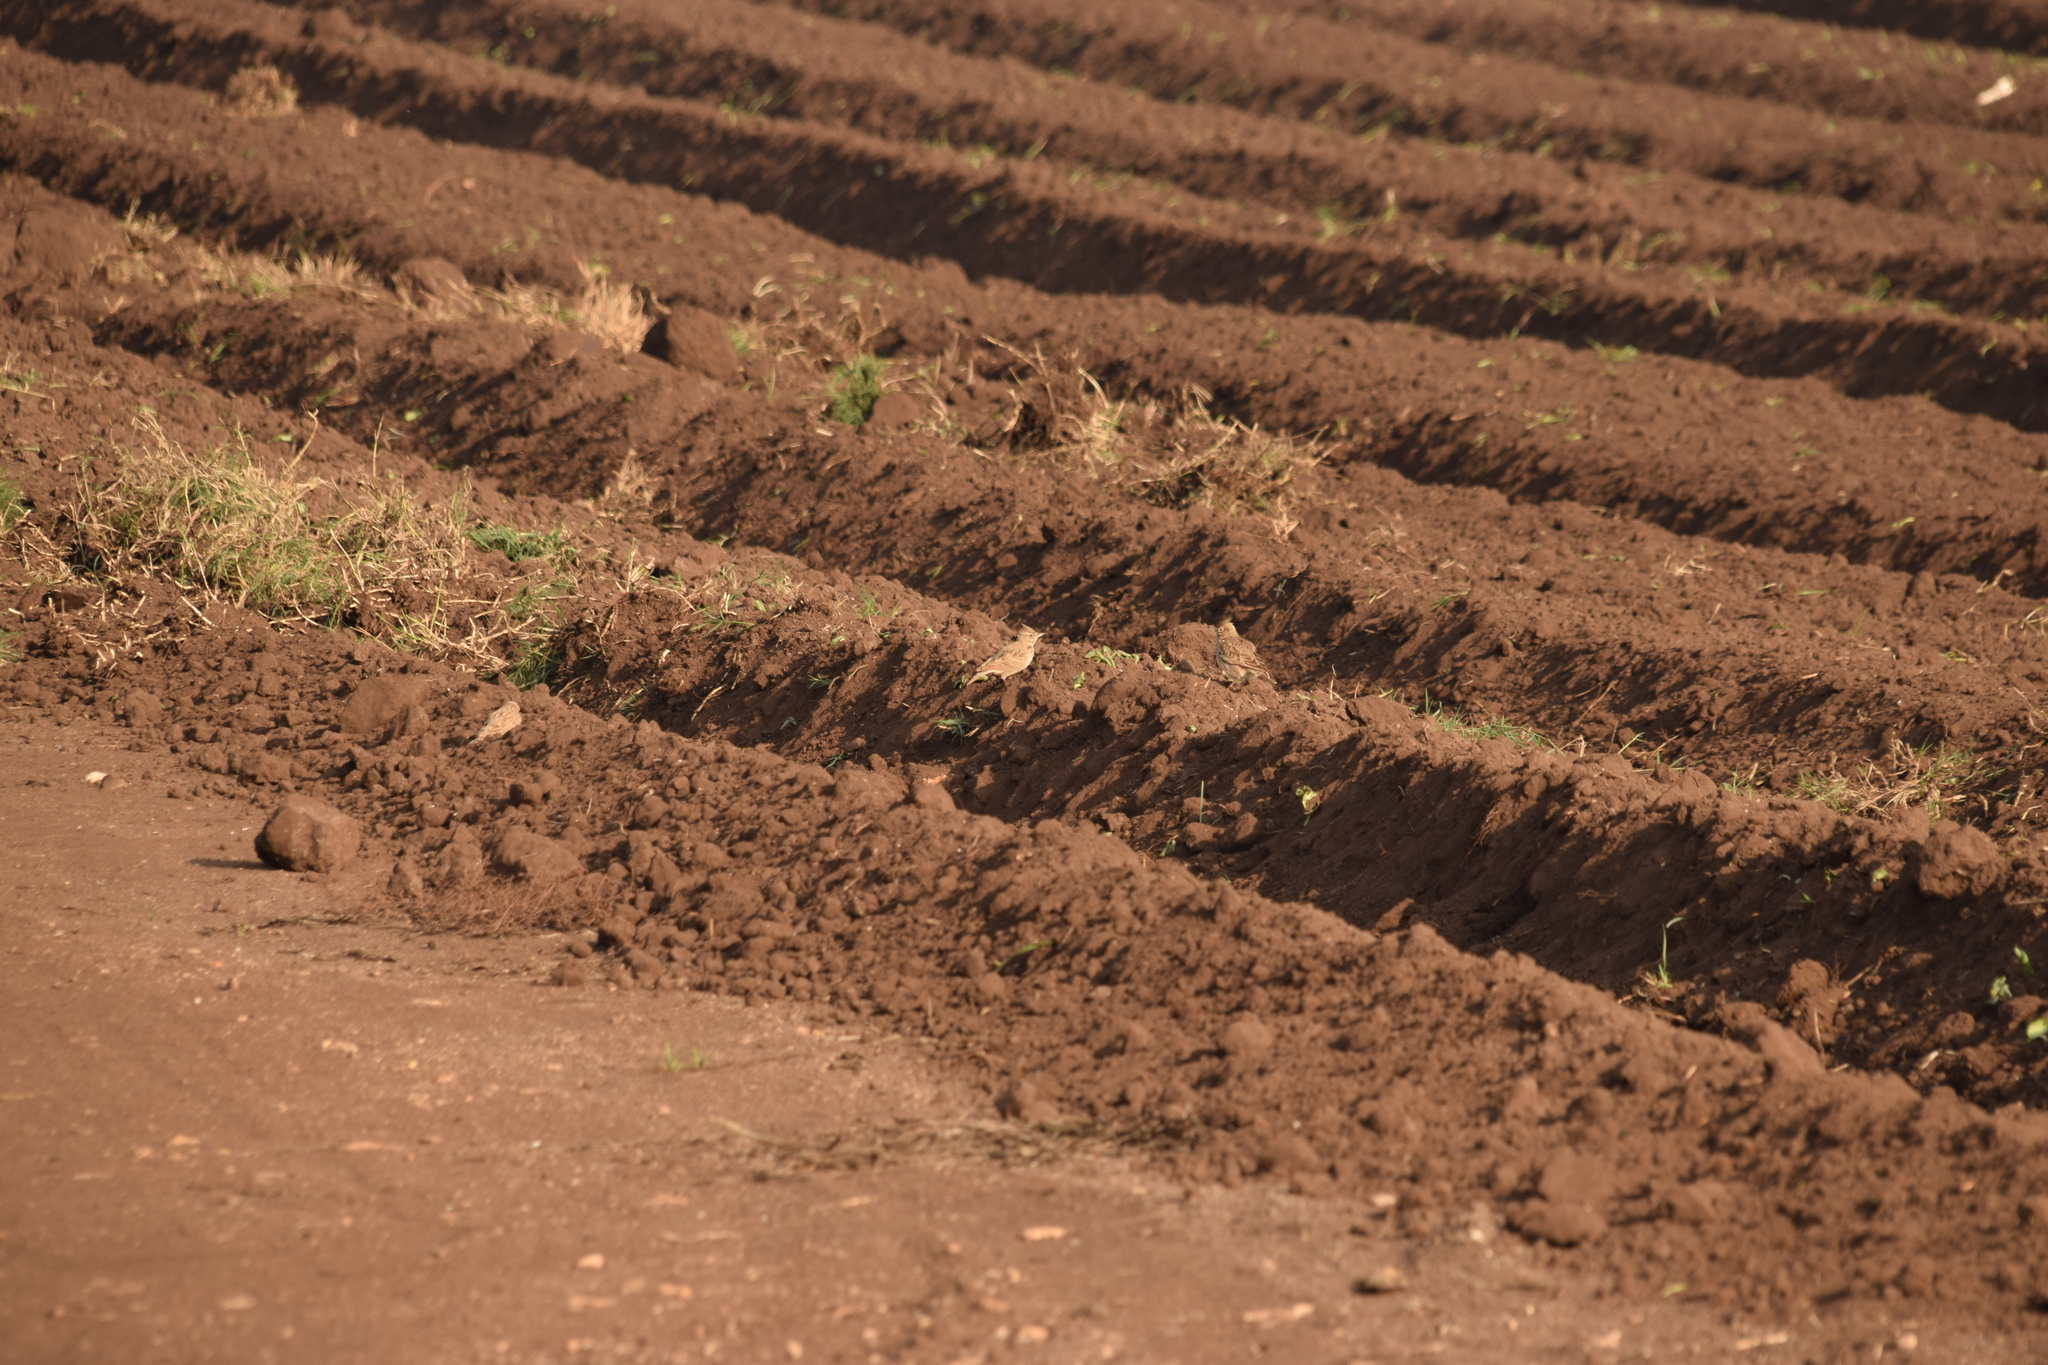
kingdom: Animalia
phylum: Chordata
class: Aves
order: Passeriformes
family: Alaudidae
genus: Galerida
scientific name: Galerida cristata
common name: Crested lark
